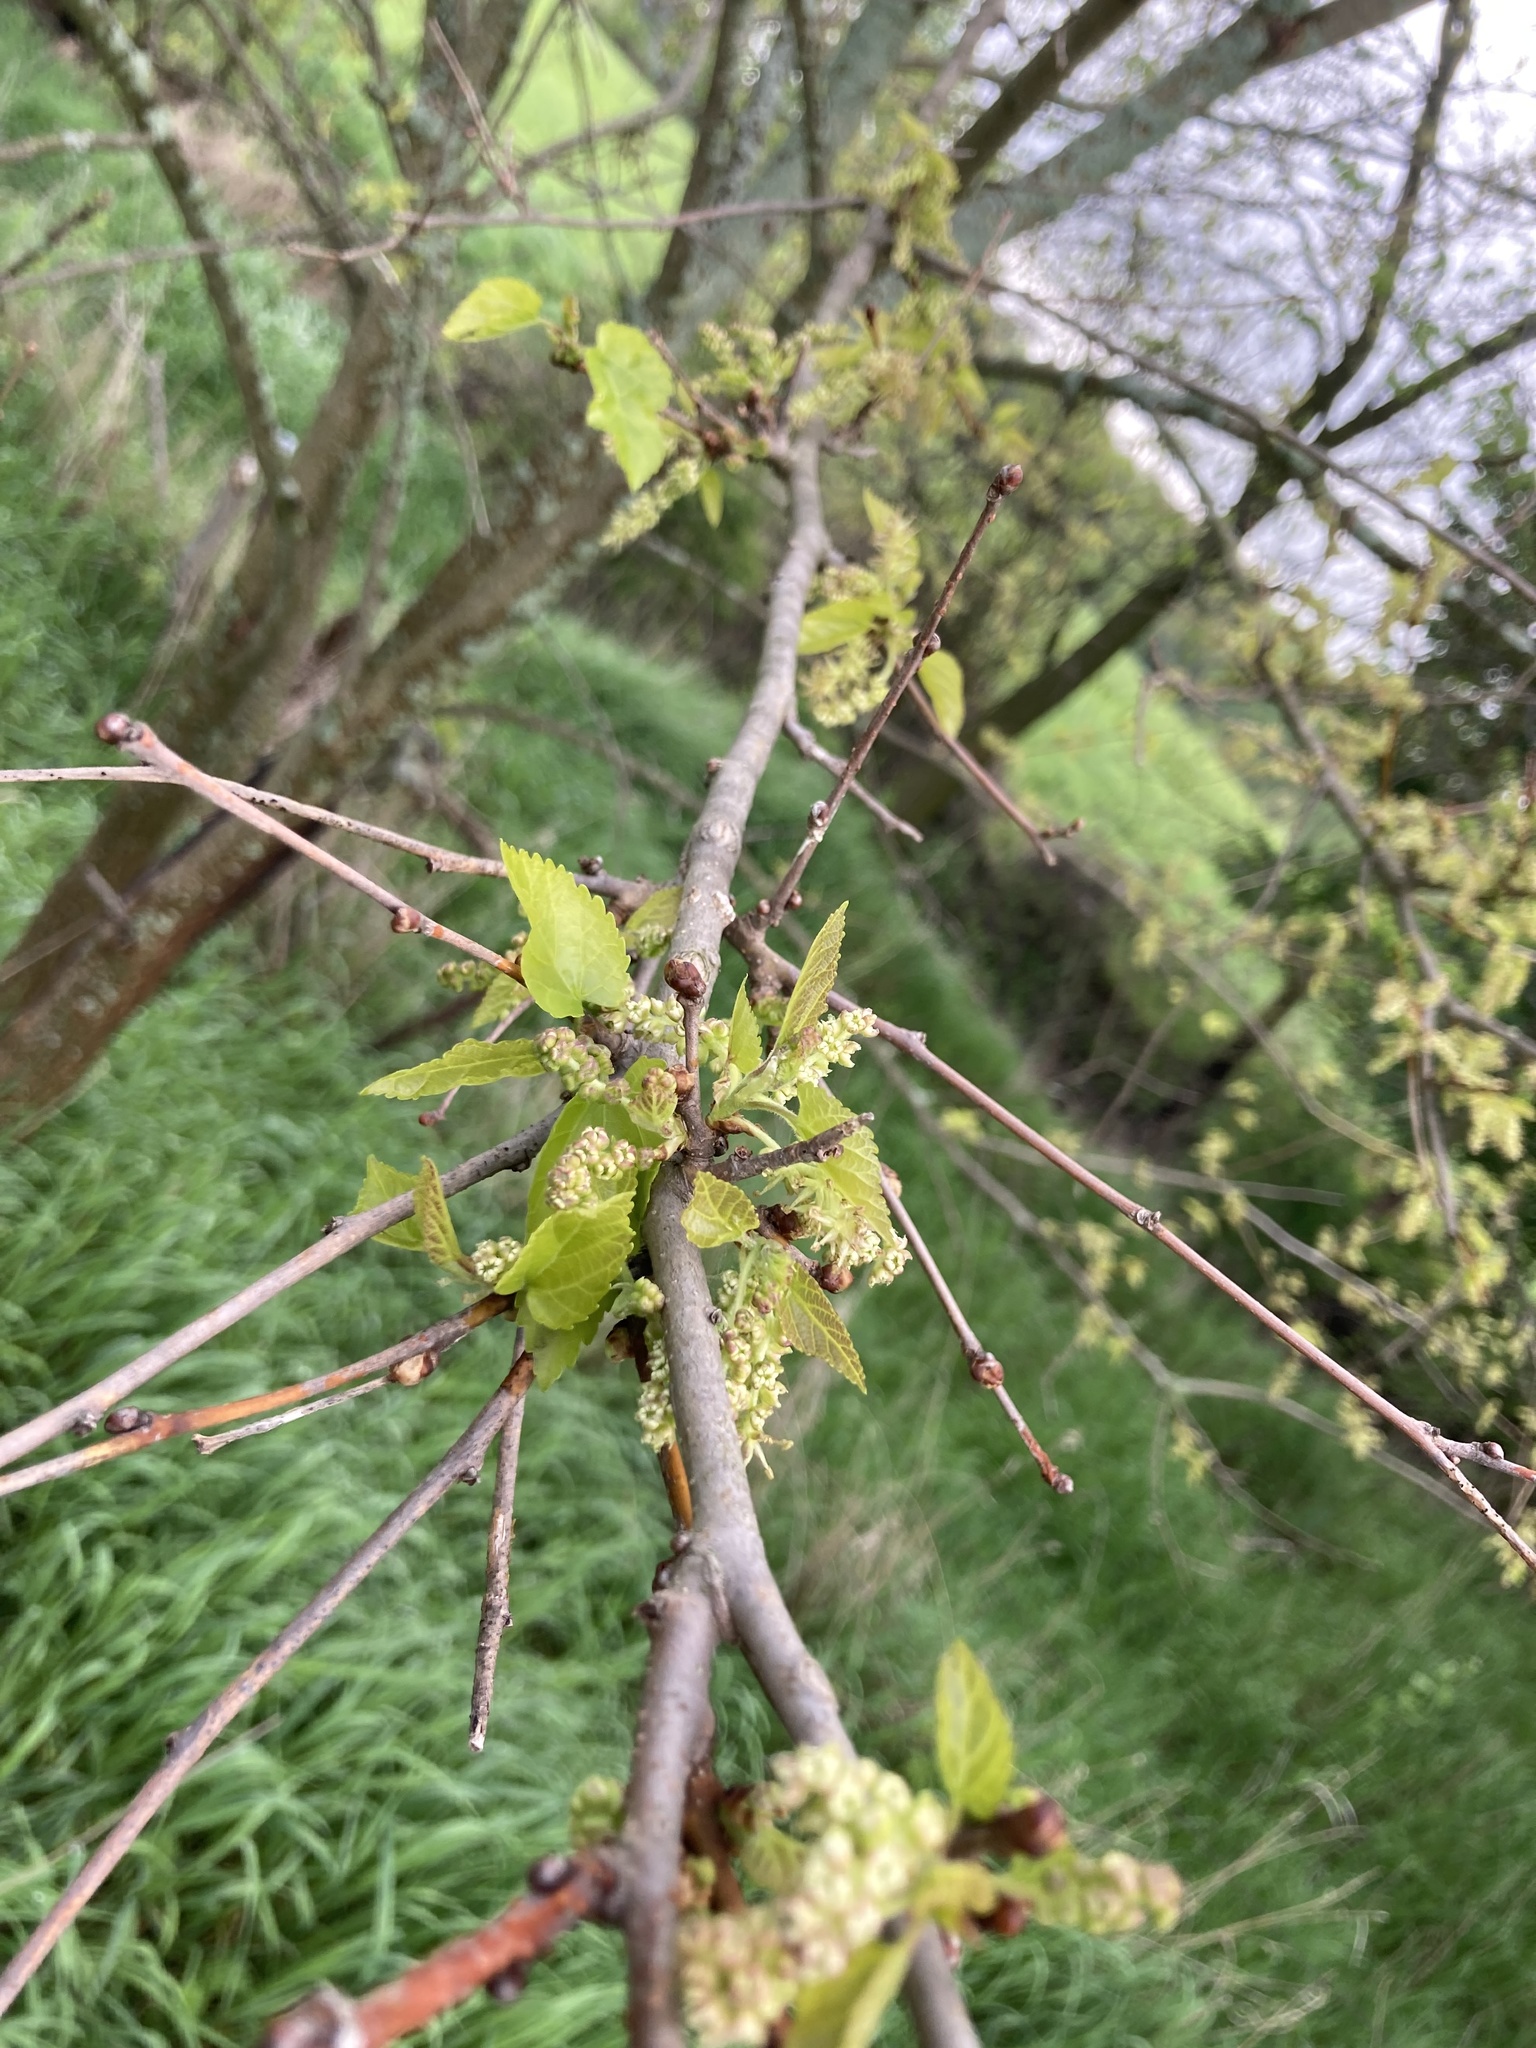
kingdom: Plantae
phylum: Tracheophyta
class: Magnoliopsida
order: Rosales
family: Moraceae
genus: Morus
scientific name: Morus alba
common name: White mulberry
